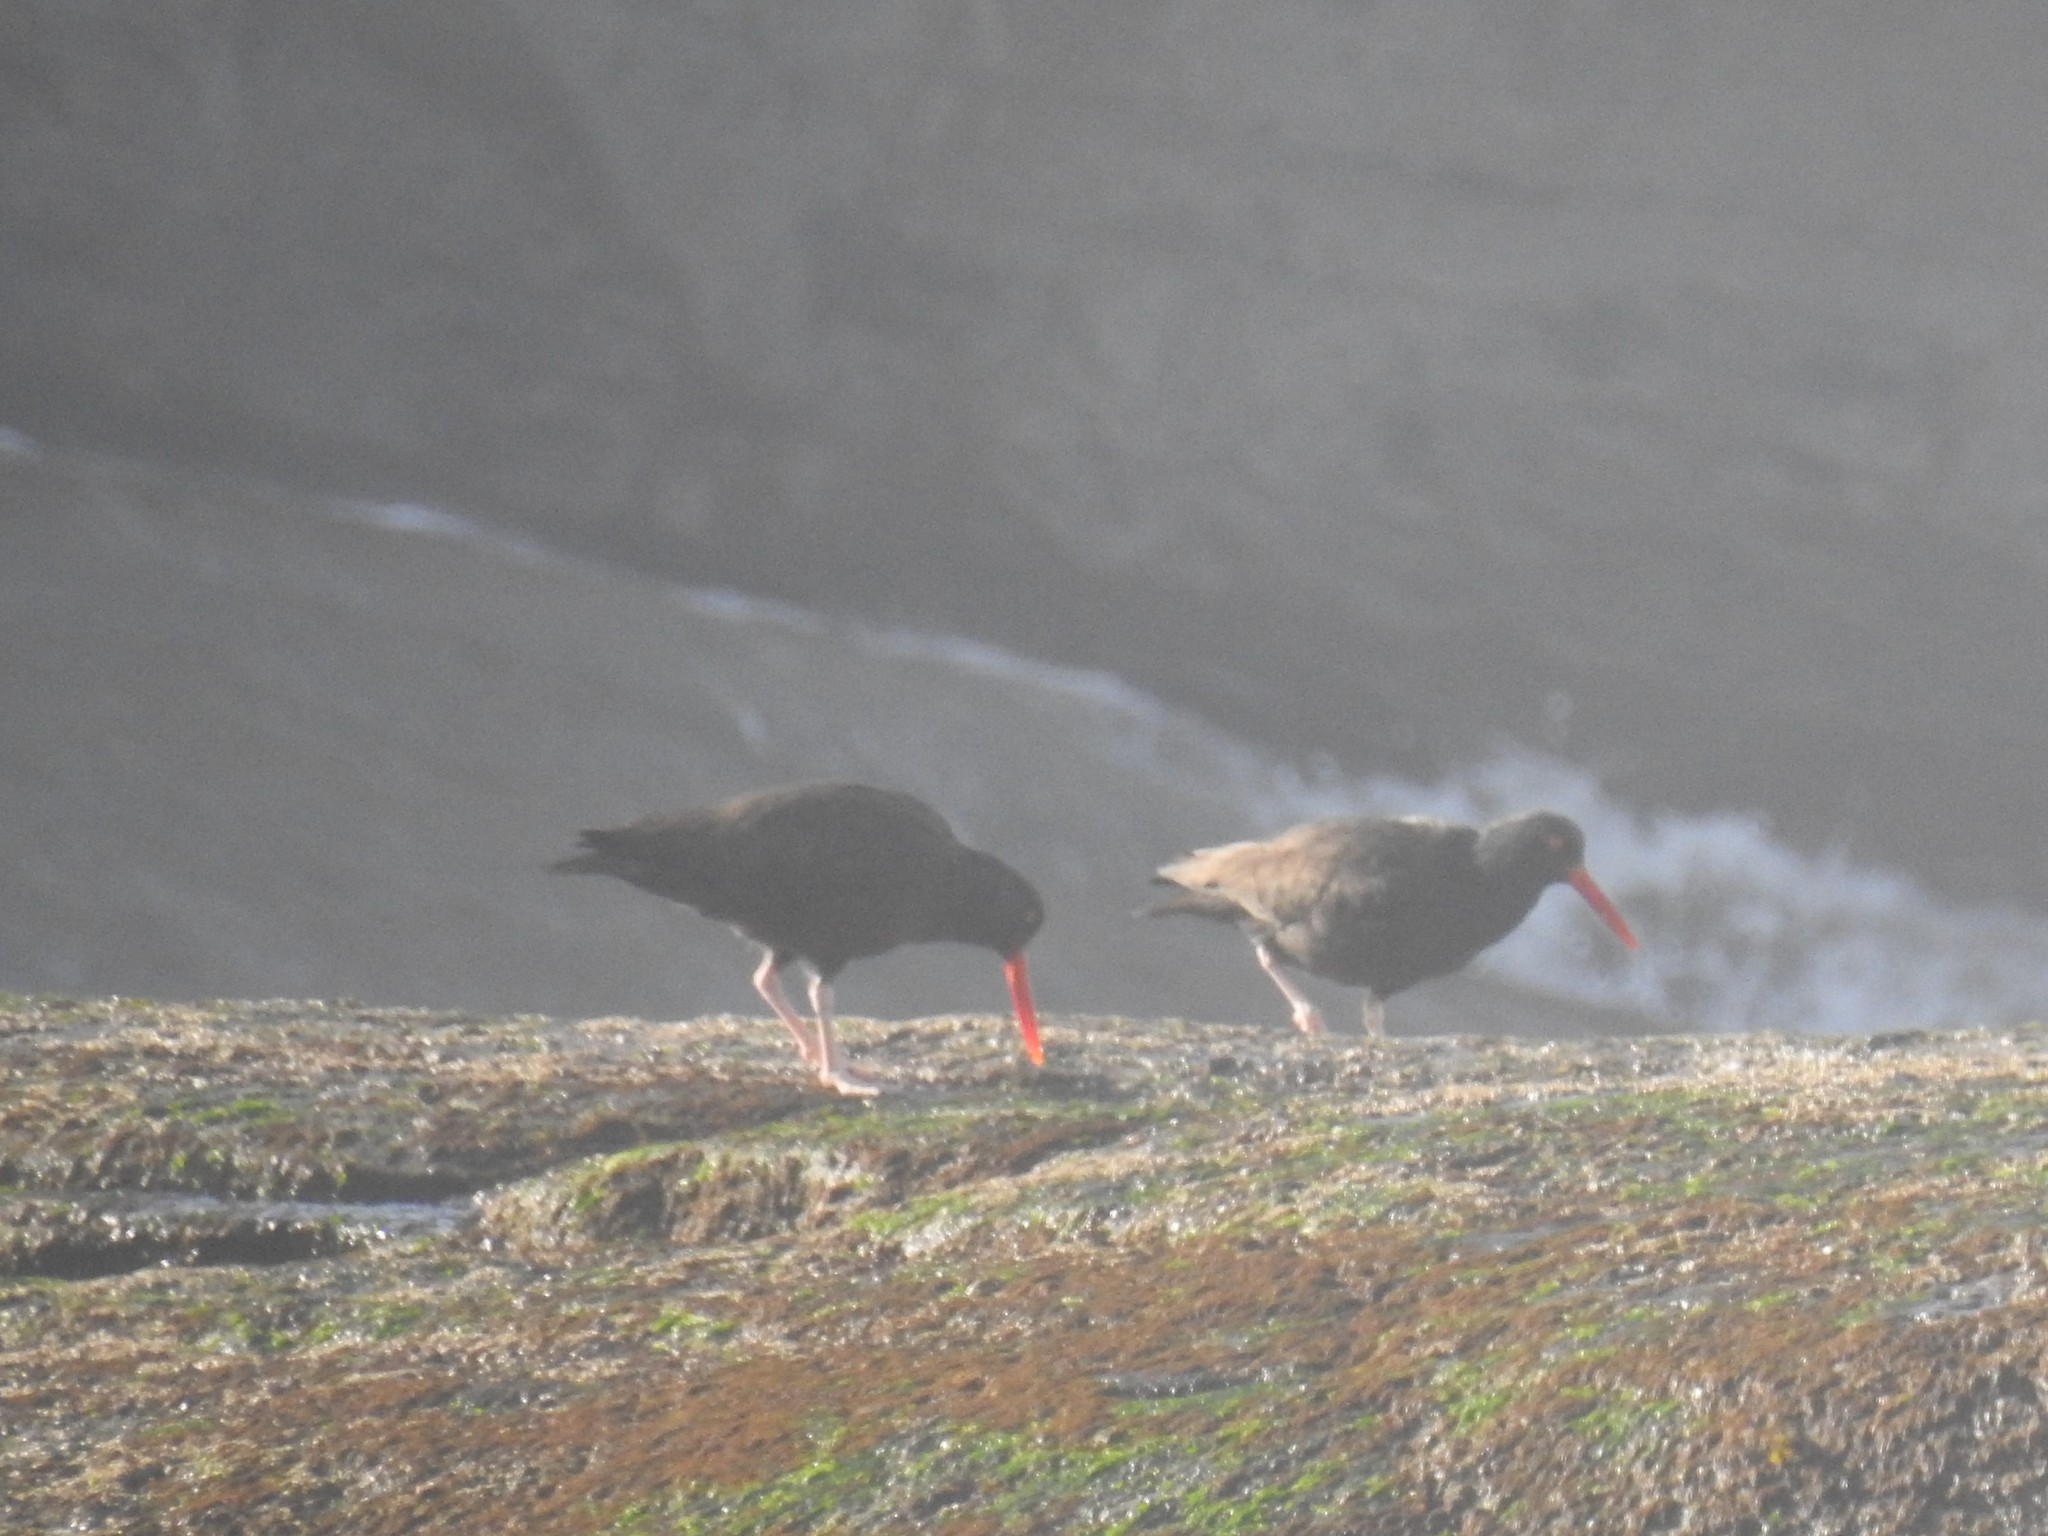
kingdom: Animalia
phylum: Chordata
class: Aves
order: Charadriiformes
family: Haematopodidae
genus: Haematopus
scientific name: Haematopus bachmani
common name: Black oystercatcher
